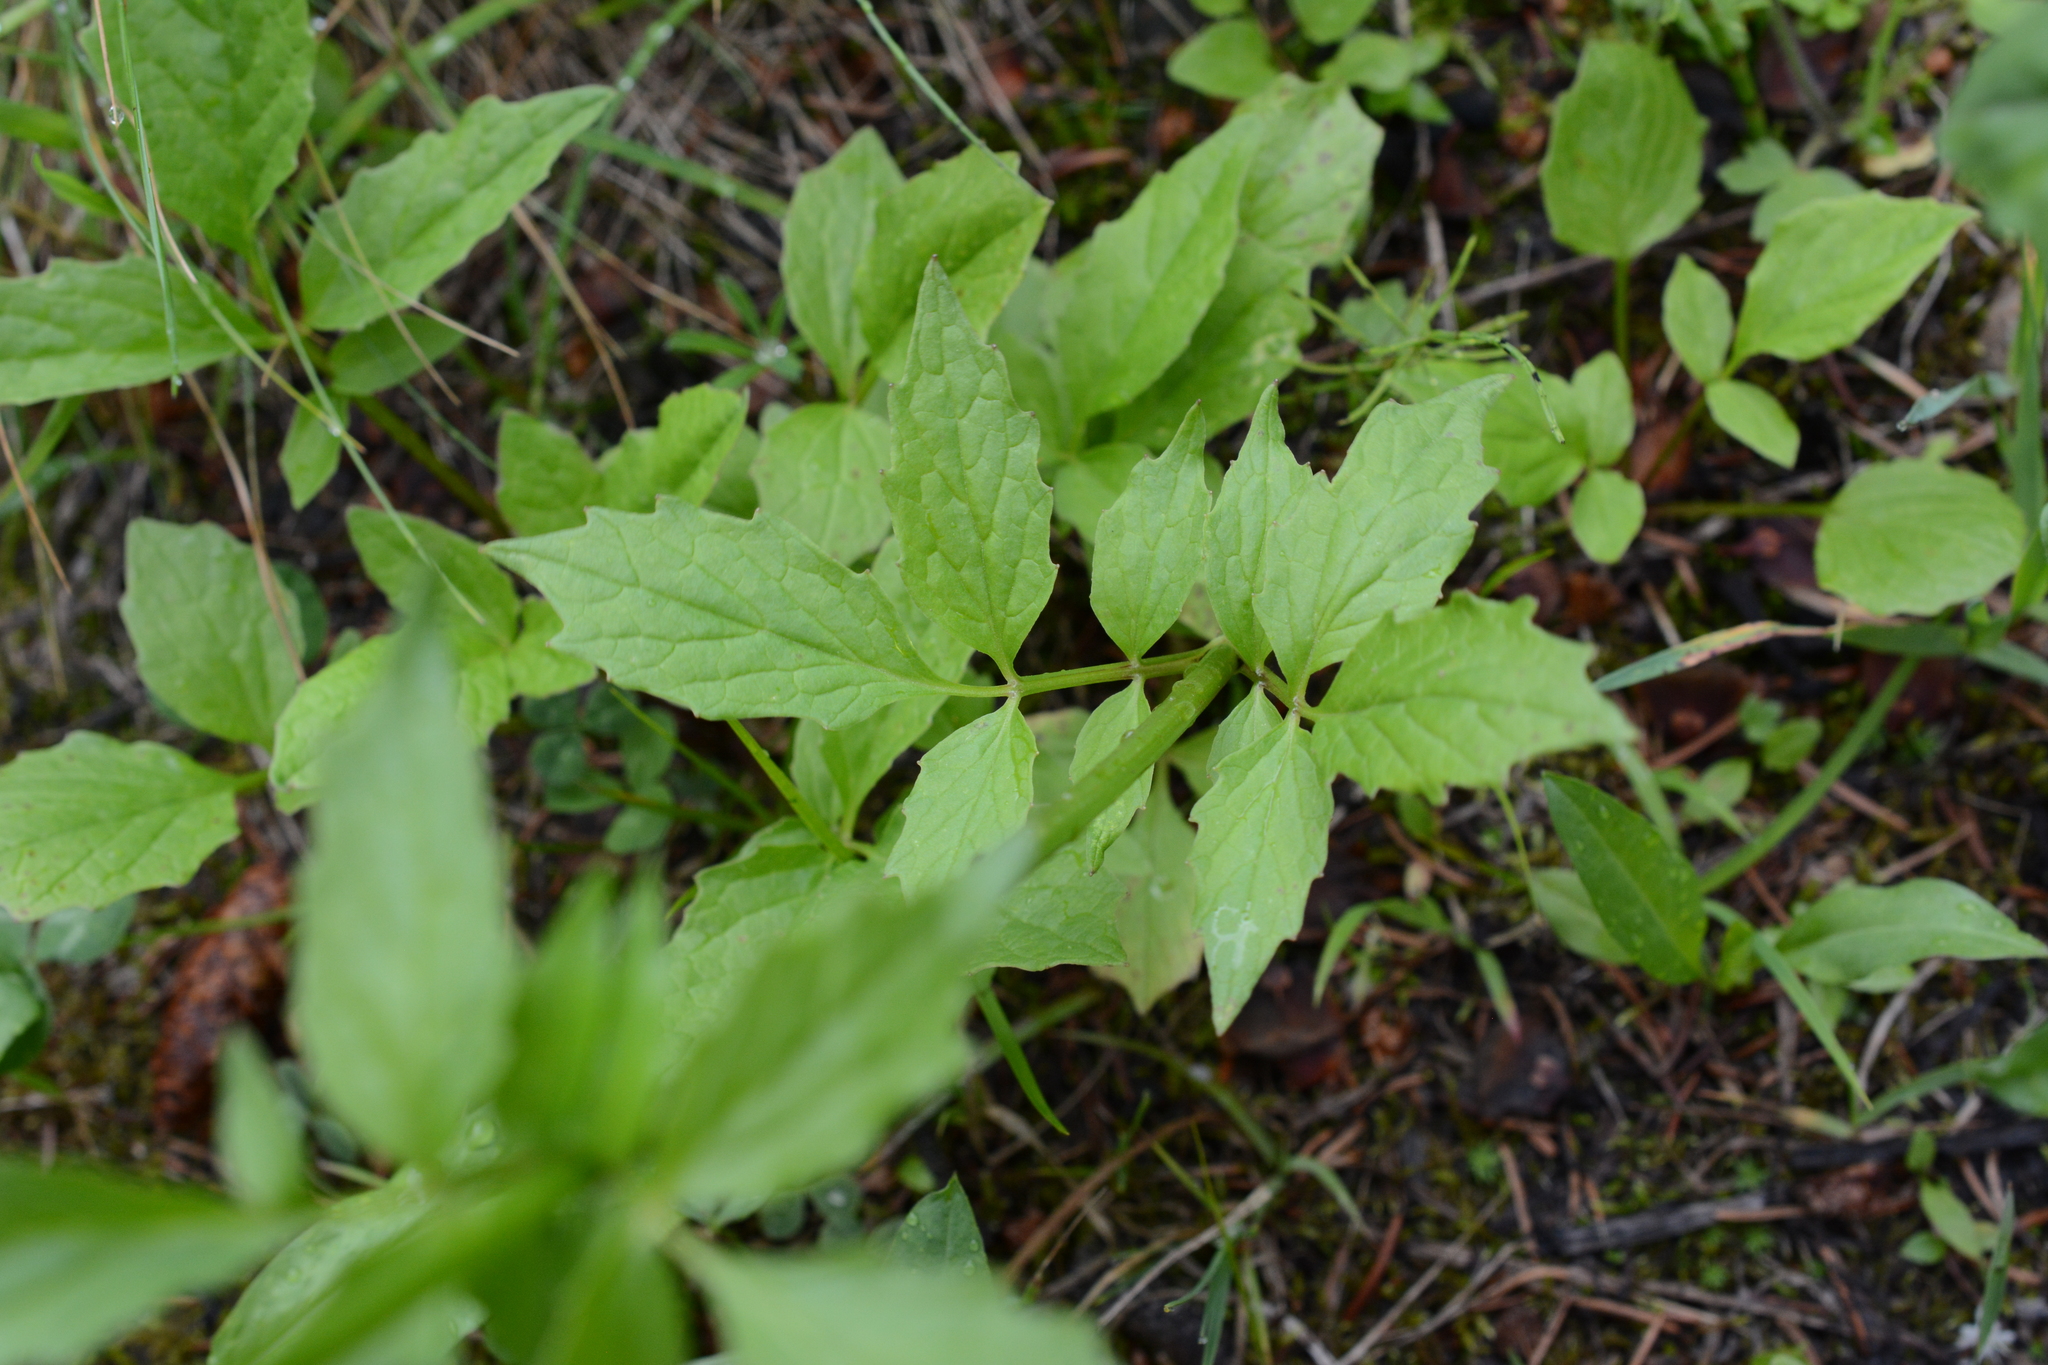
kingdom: Plantae
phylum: Tracheophyta
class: Magnoliopsida
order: Dipsacales
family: Caprifoliaceae
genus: Valeriana
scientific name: Valeriana sitchensis
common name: Pacific valerian
